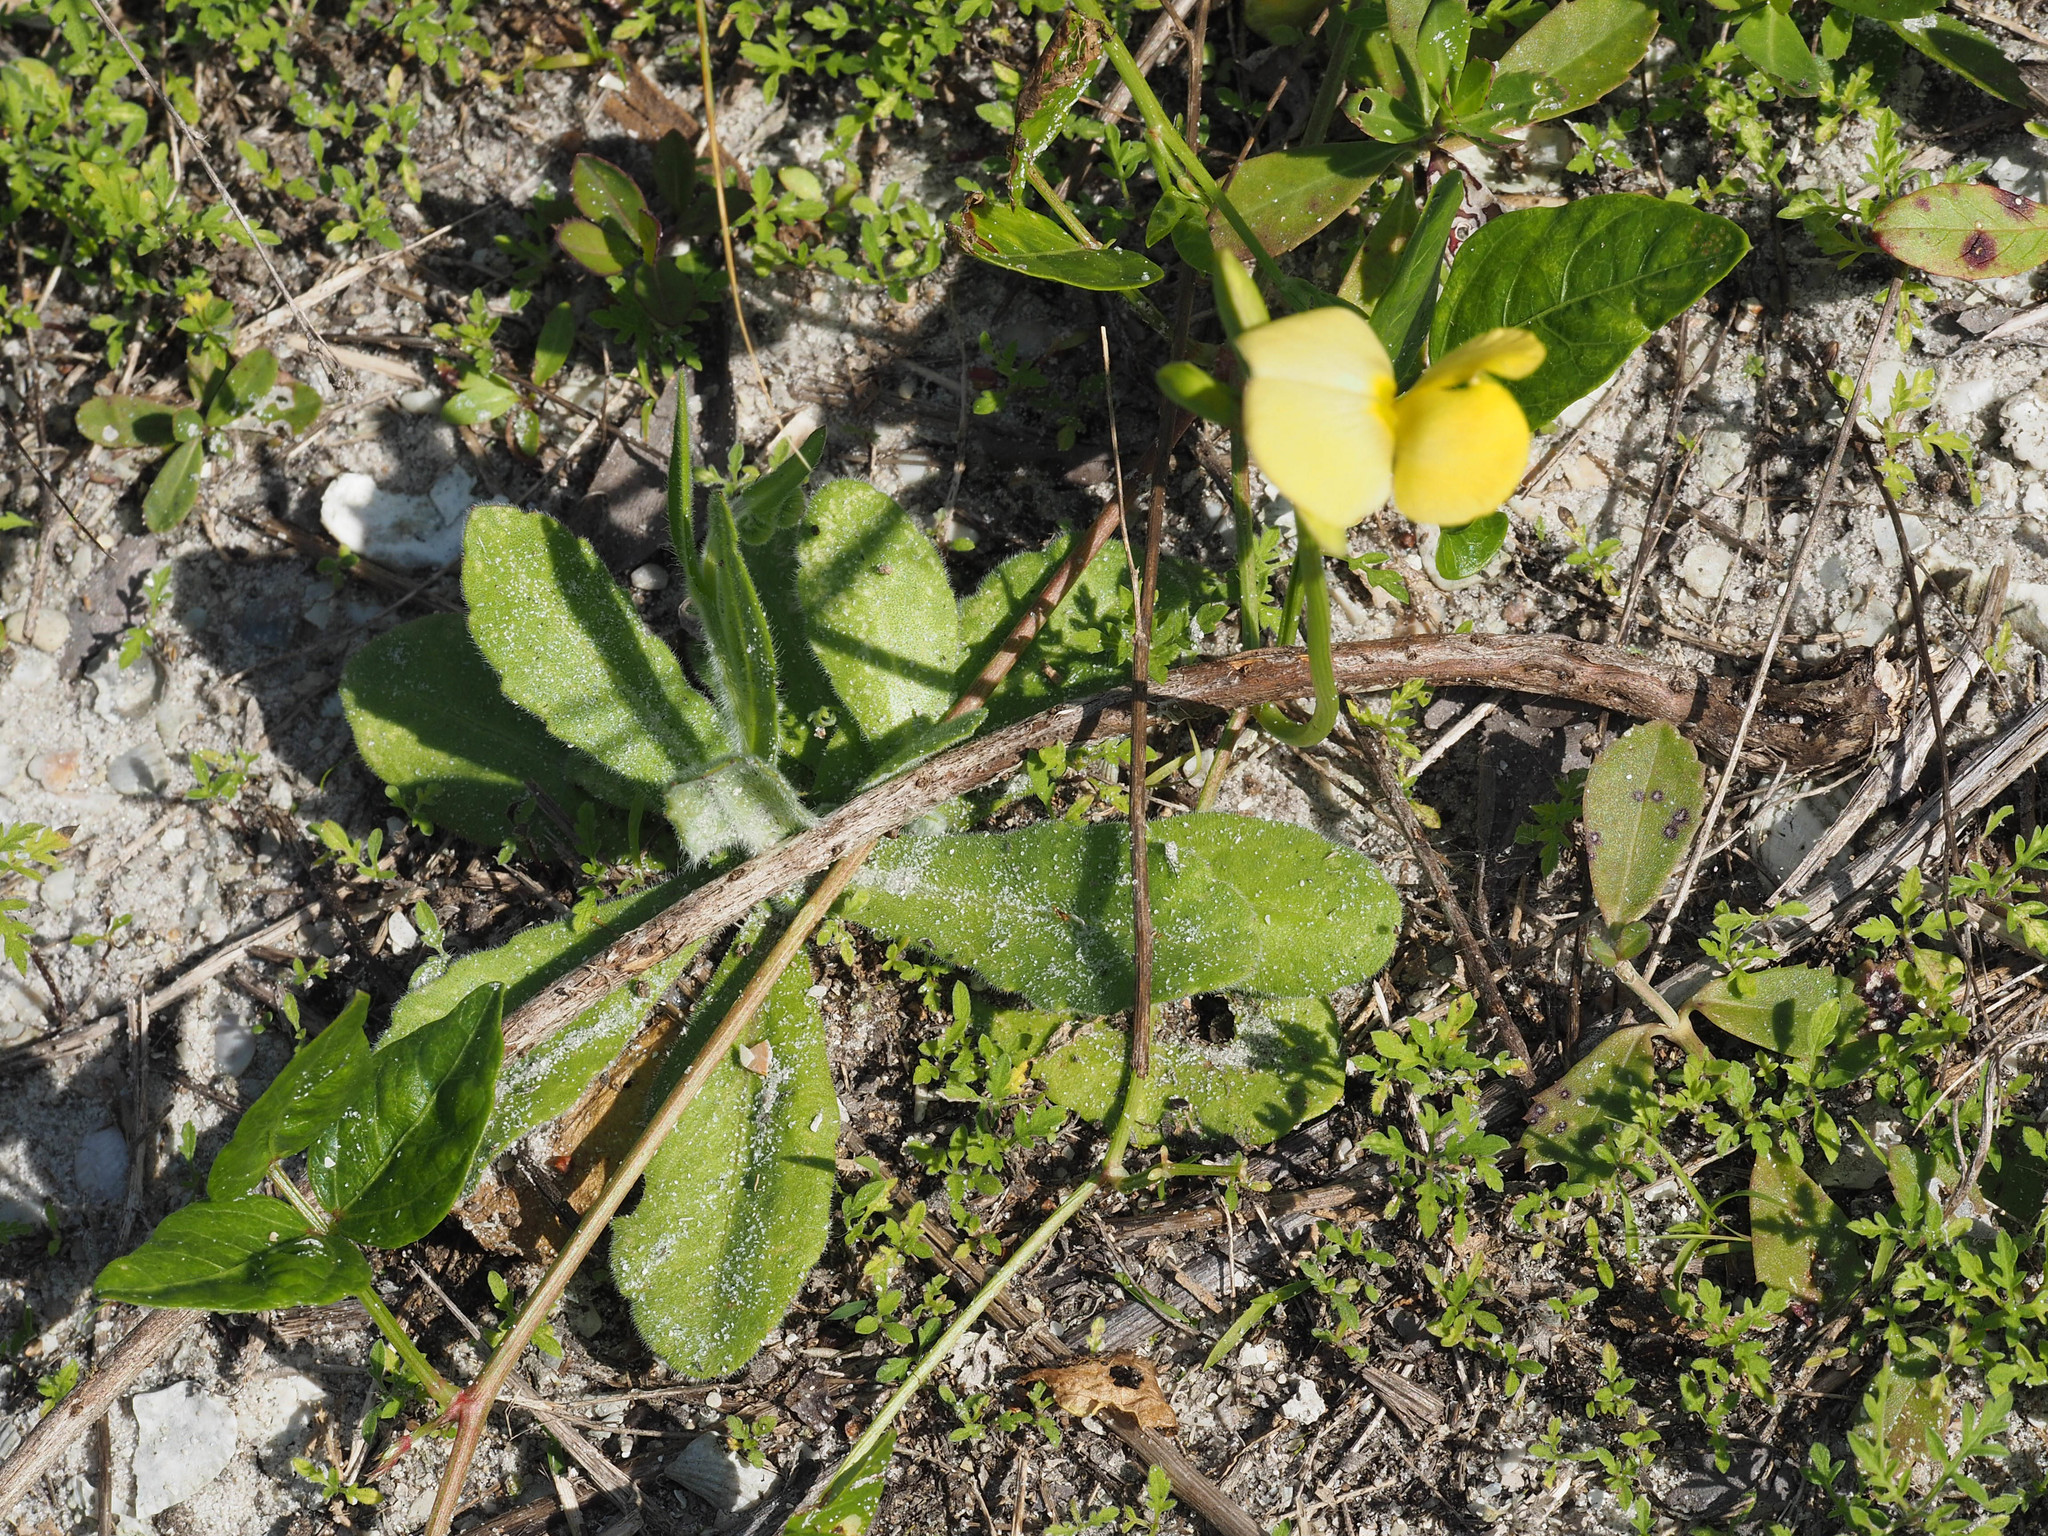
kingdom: Plantae
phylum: Tracheophyta
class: Magnoliopsida
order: Fabales
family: Fabaceae
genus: Vigna
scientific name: Vigna luteola
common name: Hairypod cowpea
